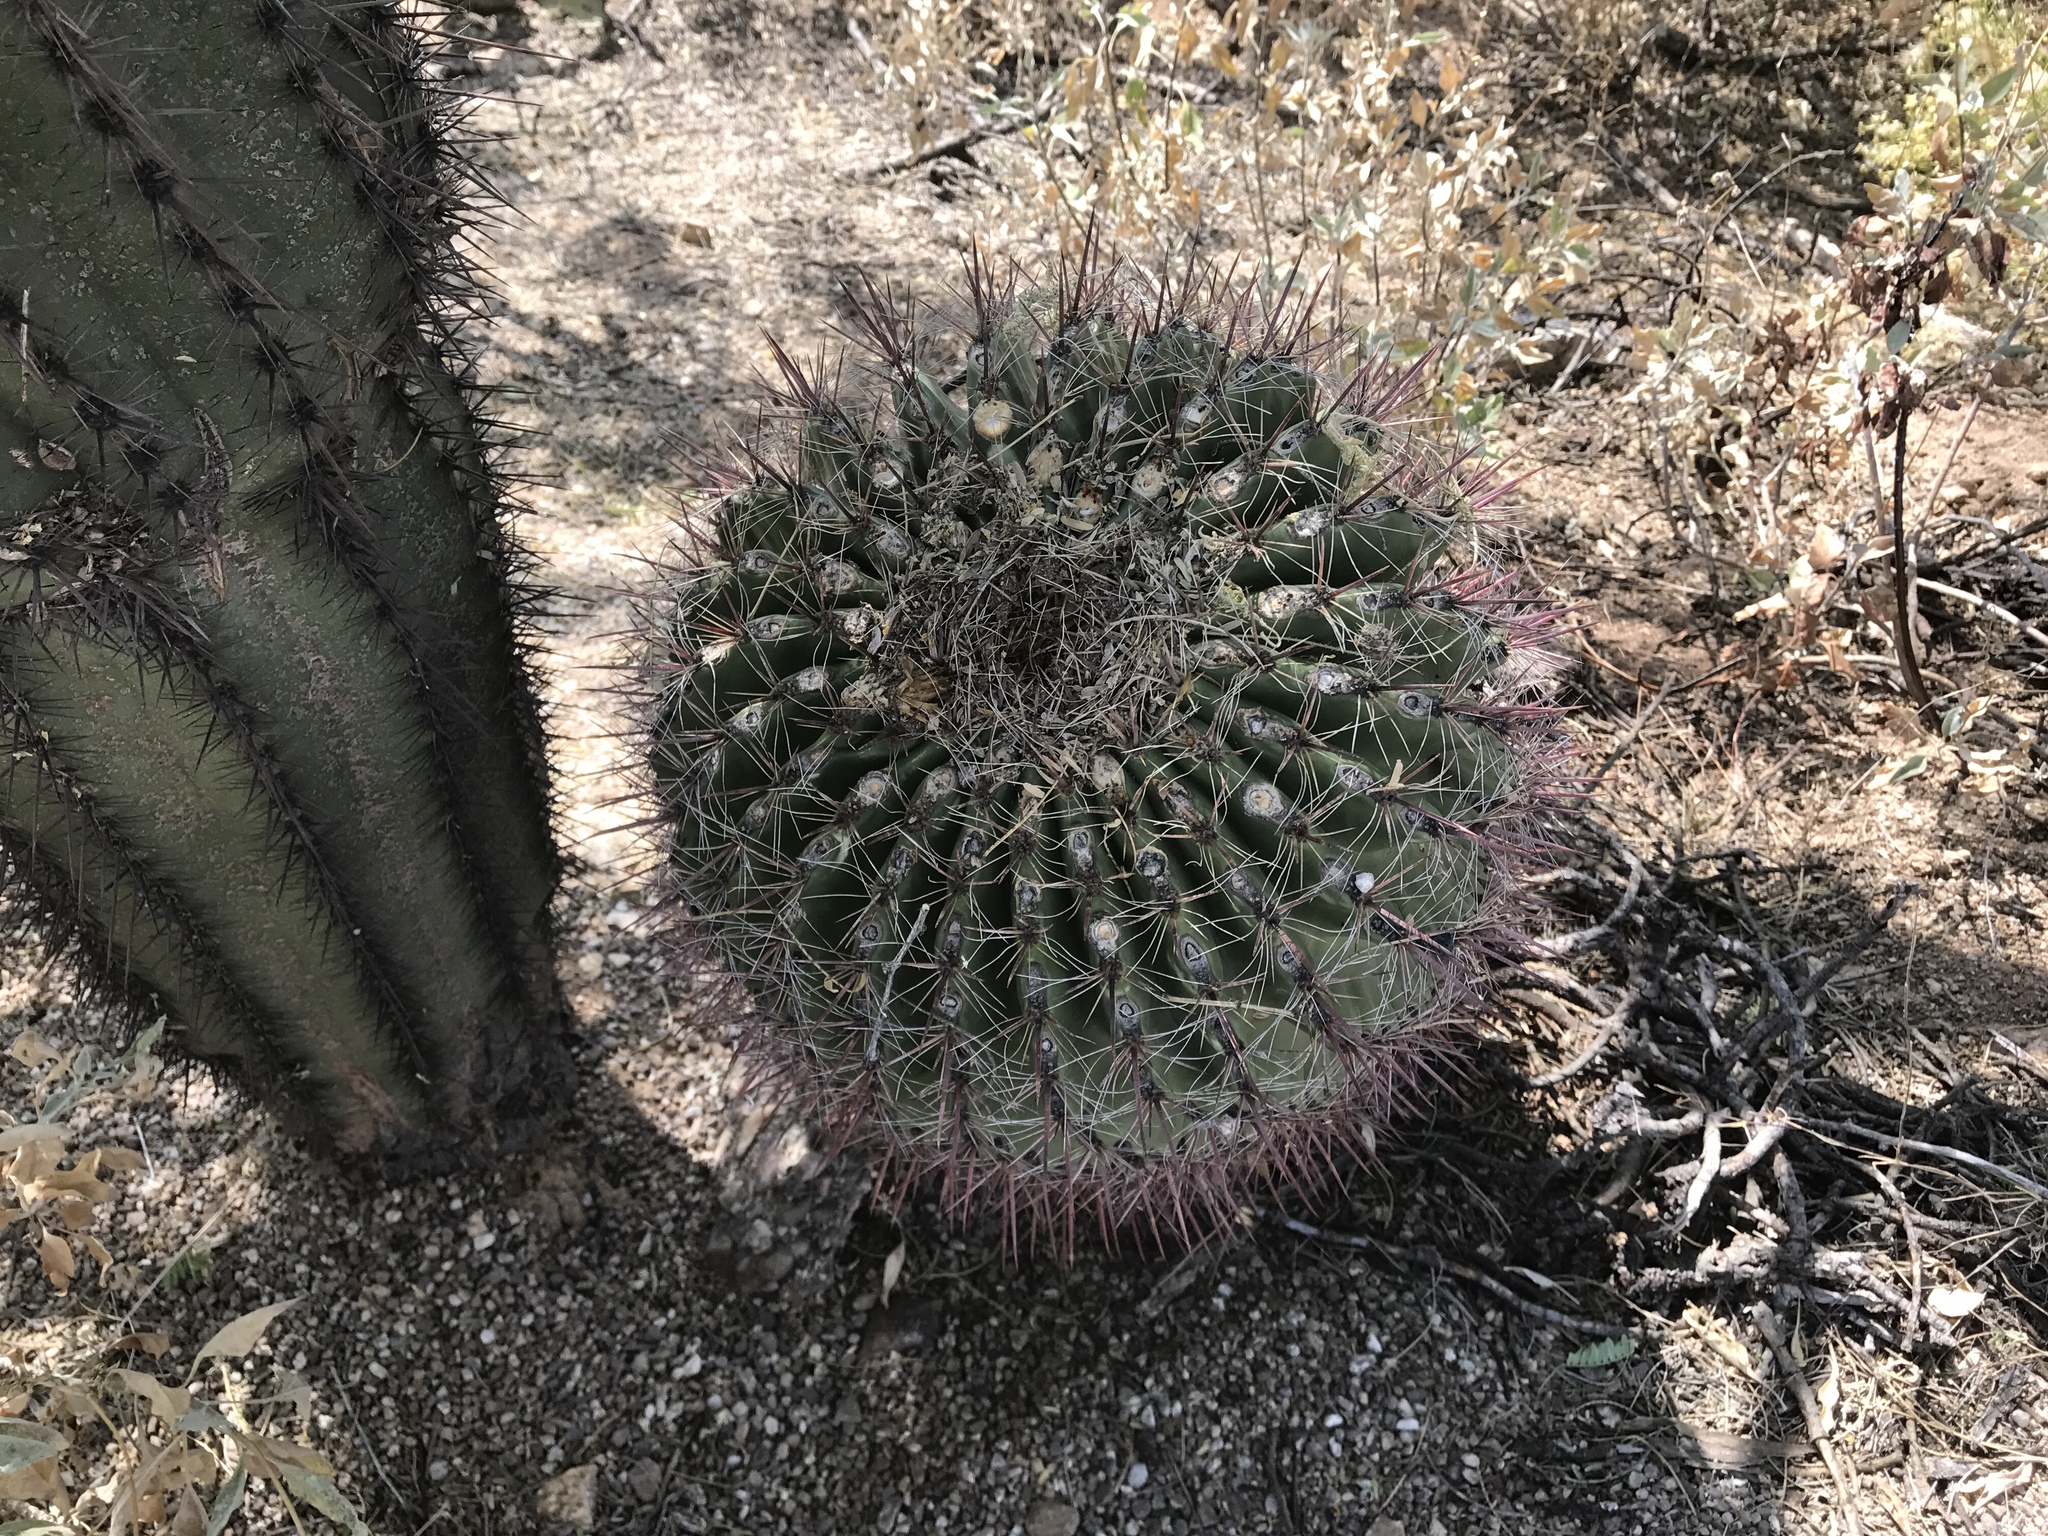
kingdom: Plantae
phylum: Tracheophyta
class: Magnoliopsida
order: Caryophyllales
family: Cactaceae
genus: Ferocactus
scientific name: Ferocactus wislizeni
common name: Candy barrel cactus
